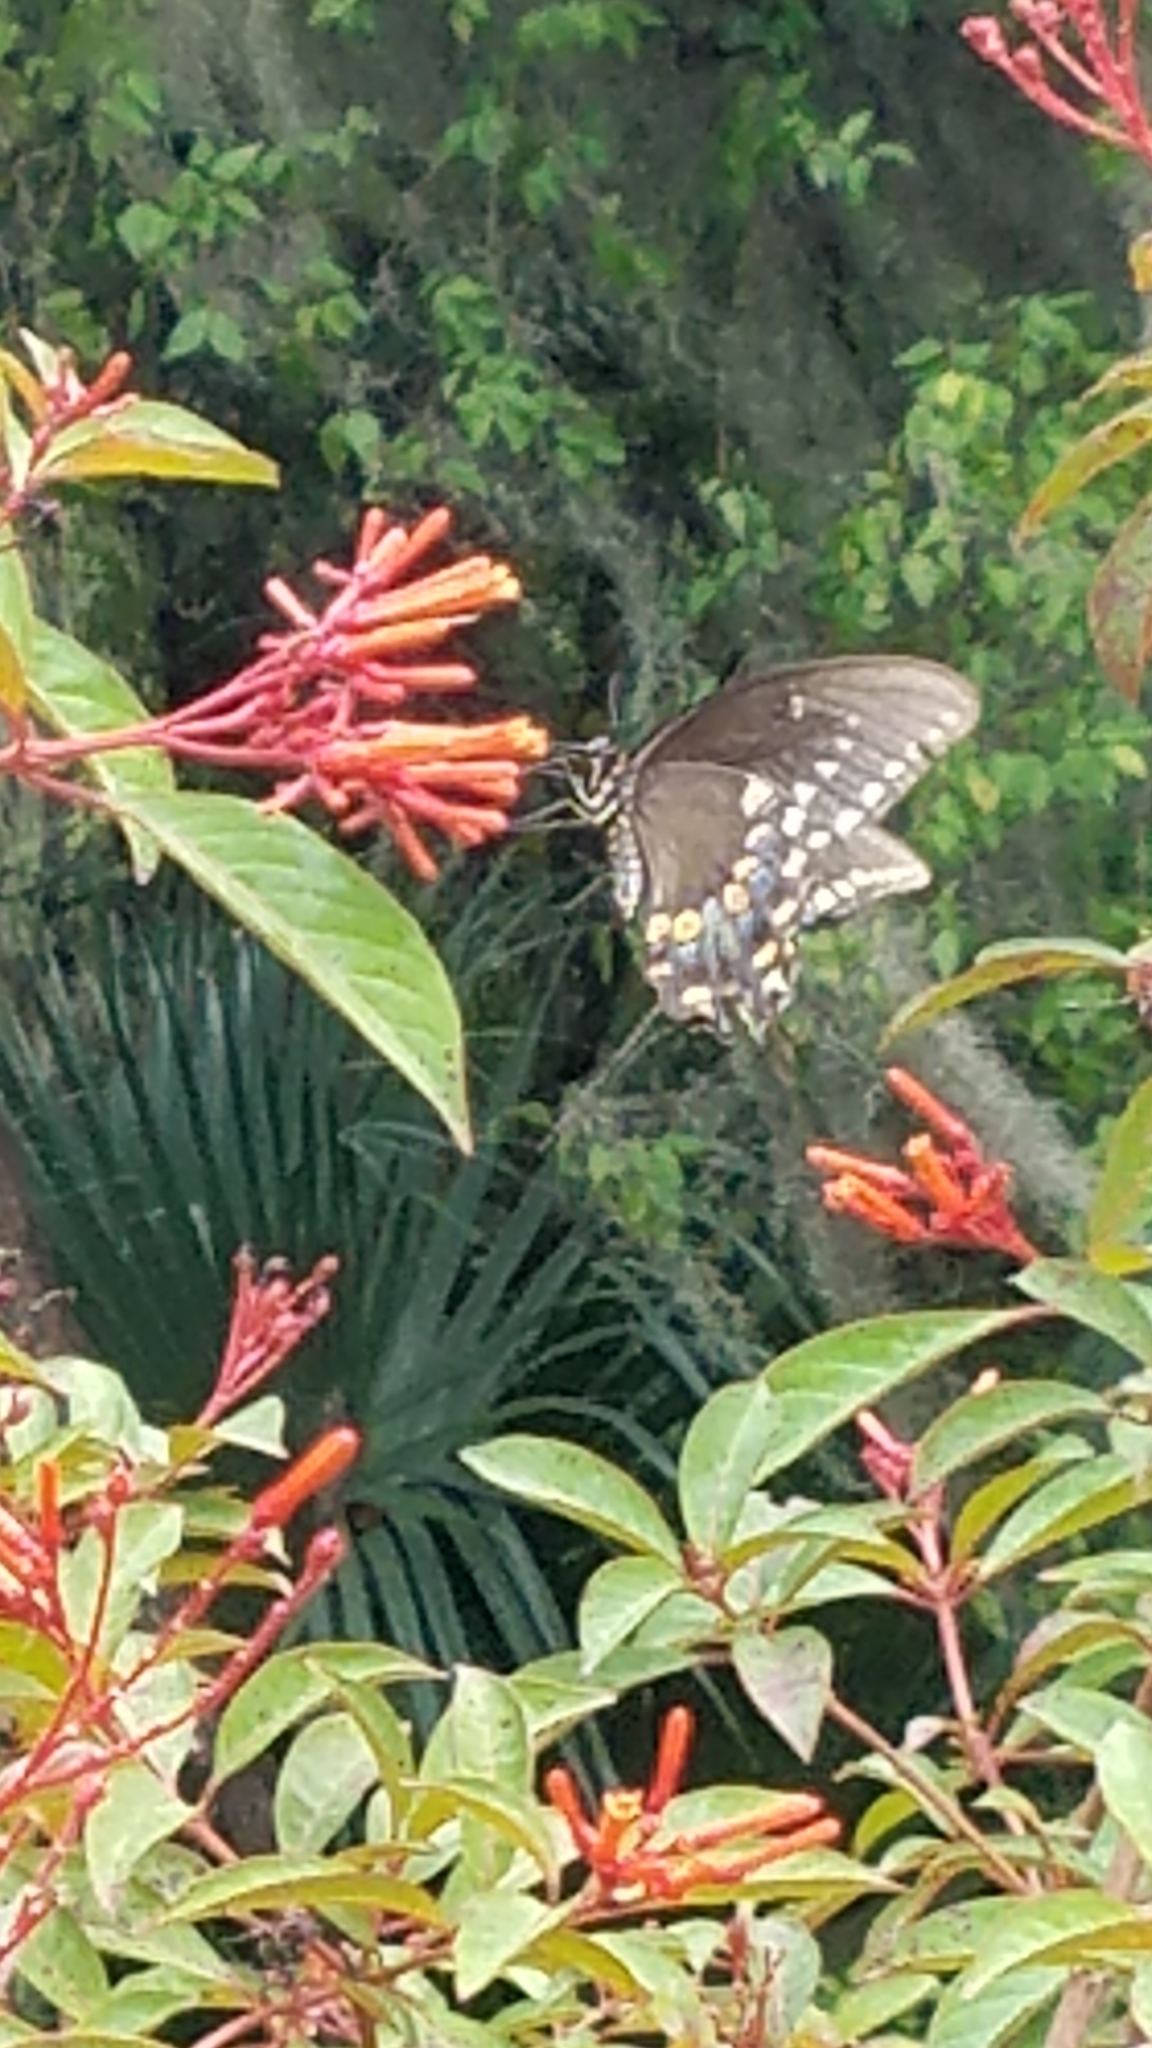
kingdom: Animalia
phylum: Arthropoda
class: Insecta
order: Lepidoptera
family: Papilionidae
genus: Papilio
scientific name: Papilio troilus
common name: Spicebush swallowtail
